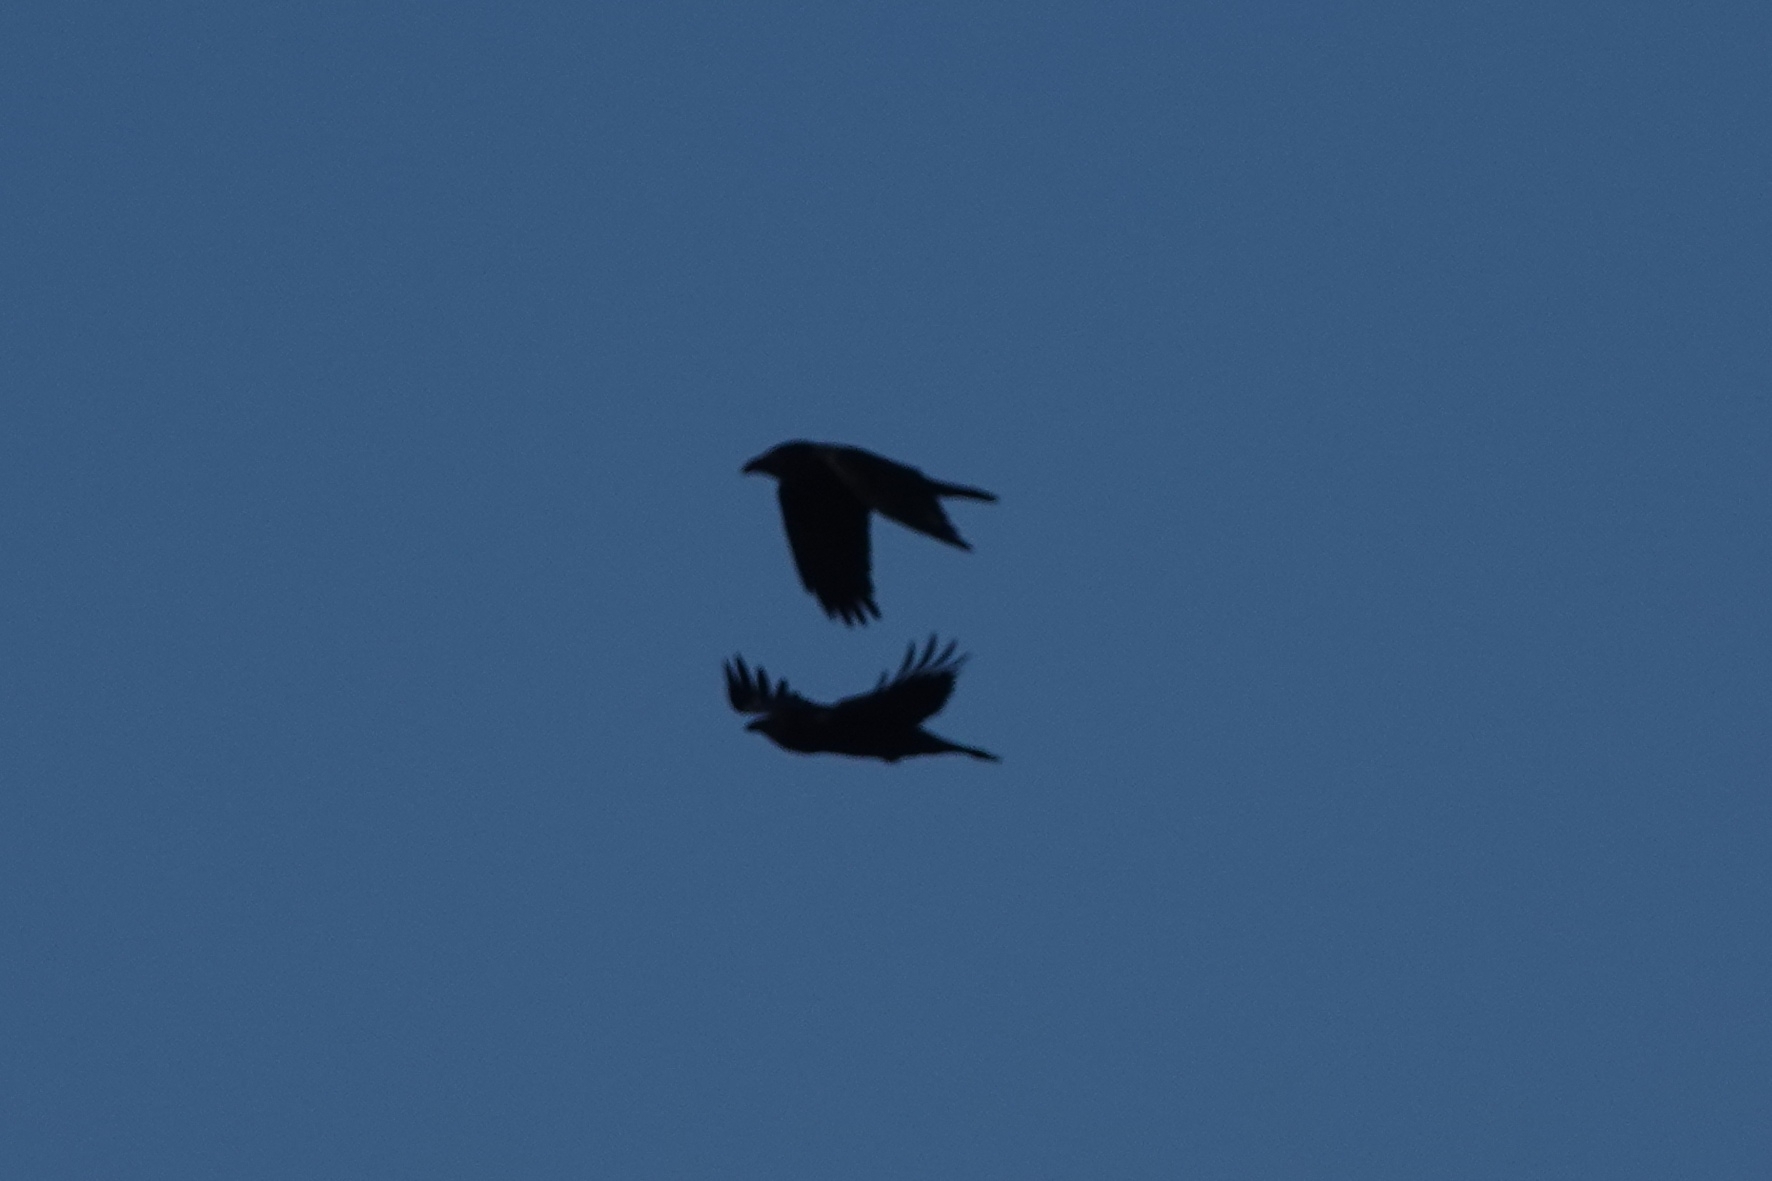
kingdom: Animalia
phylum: Chordata
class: Aves
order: Passeriformes
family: Corvidae
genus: Corvus
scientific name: Corvus corax
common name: Common raven
